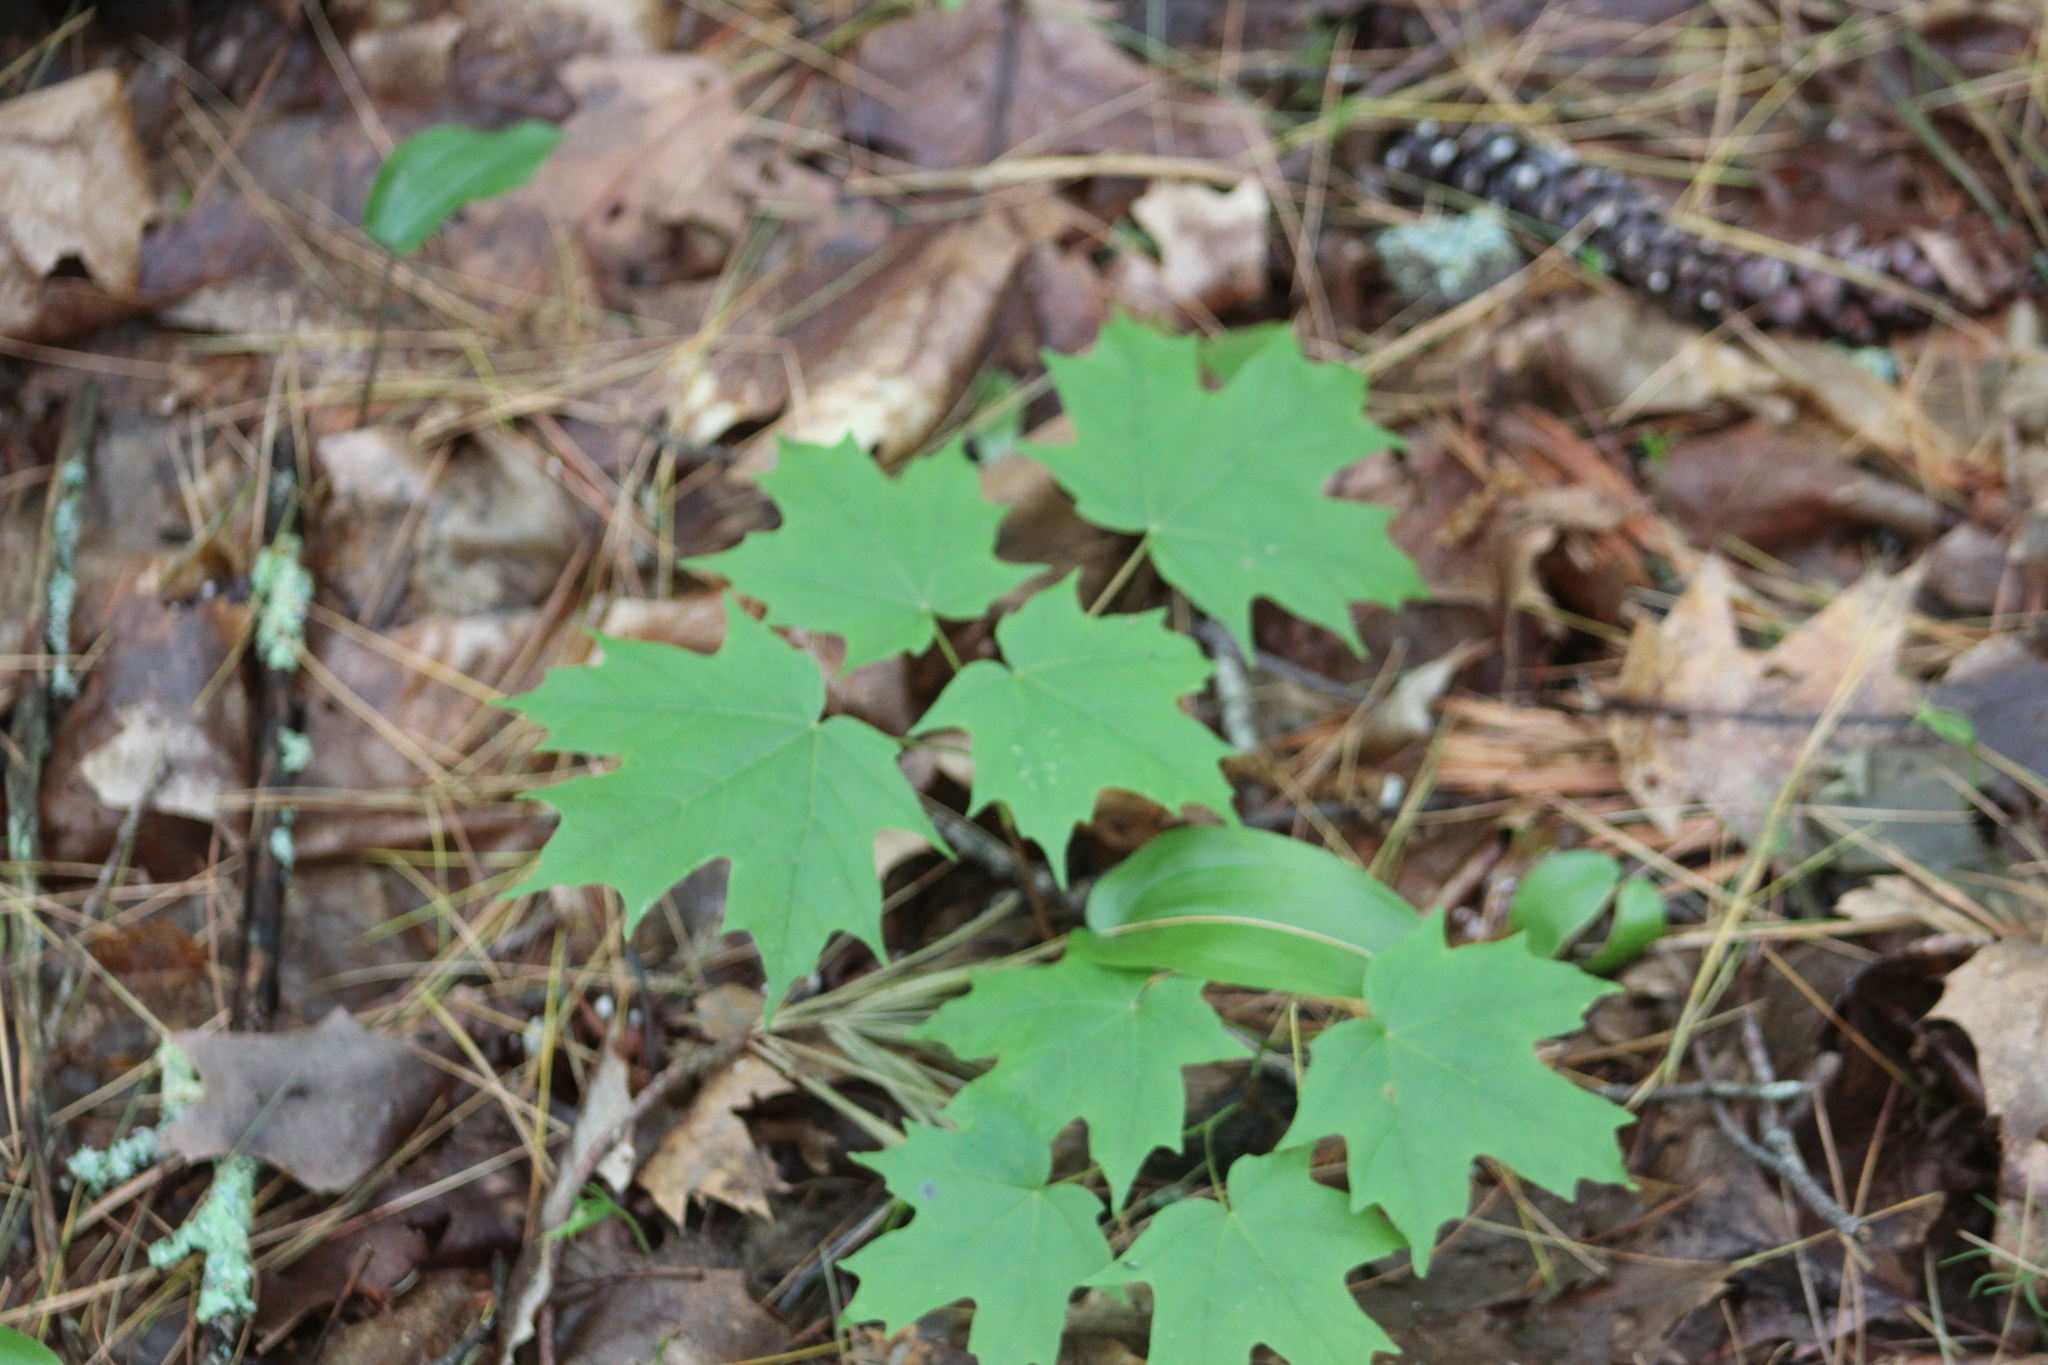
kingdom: Plantae
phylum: Tracheophyta
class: Magnoliopsida
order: Sapindales
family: Sapindaceae
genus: Acer
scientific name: Acer saccharum
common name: Sugar maple
